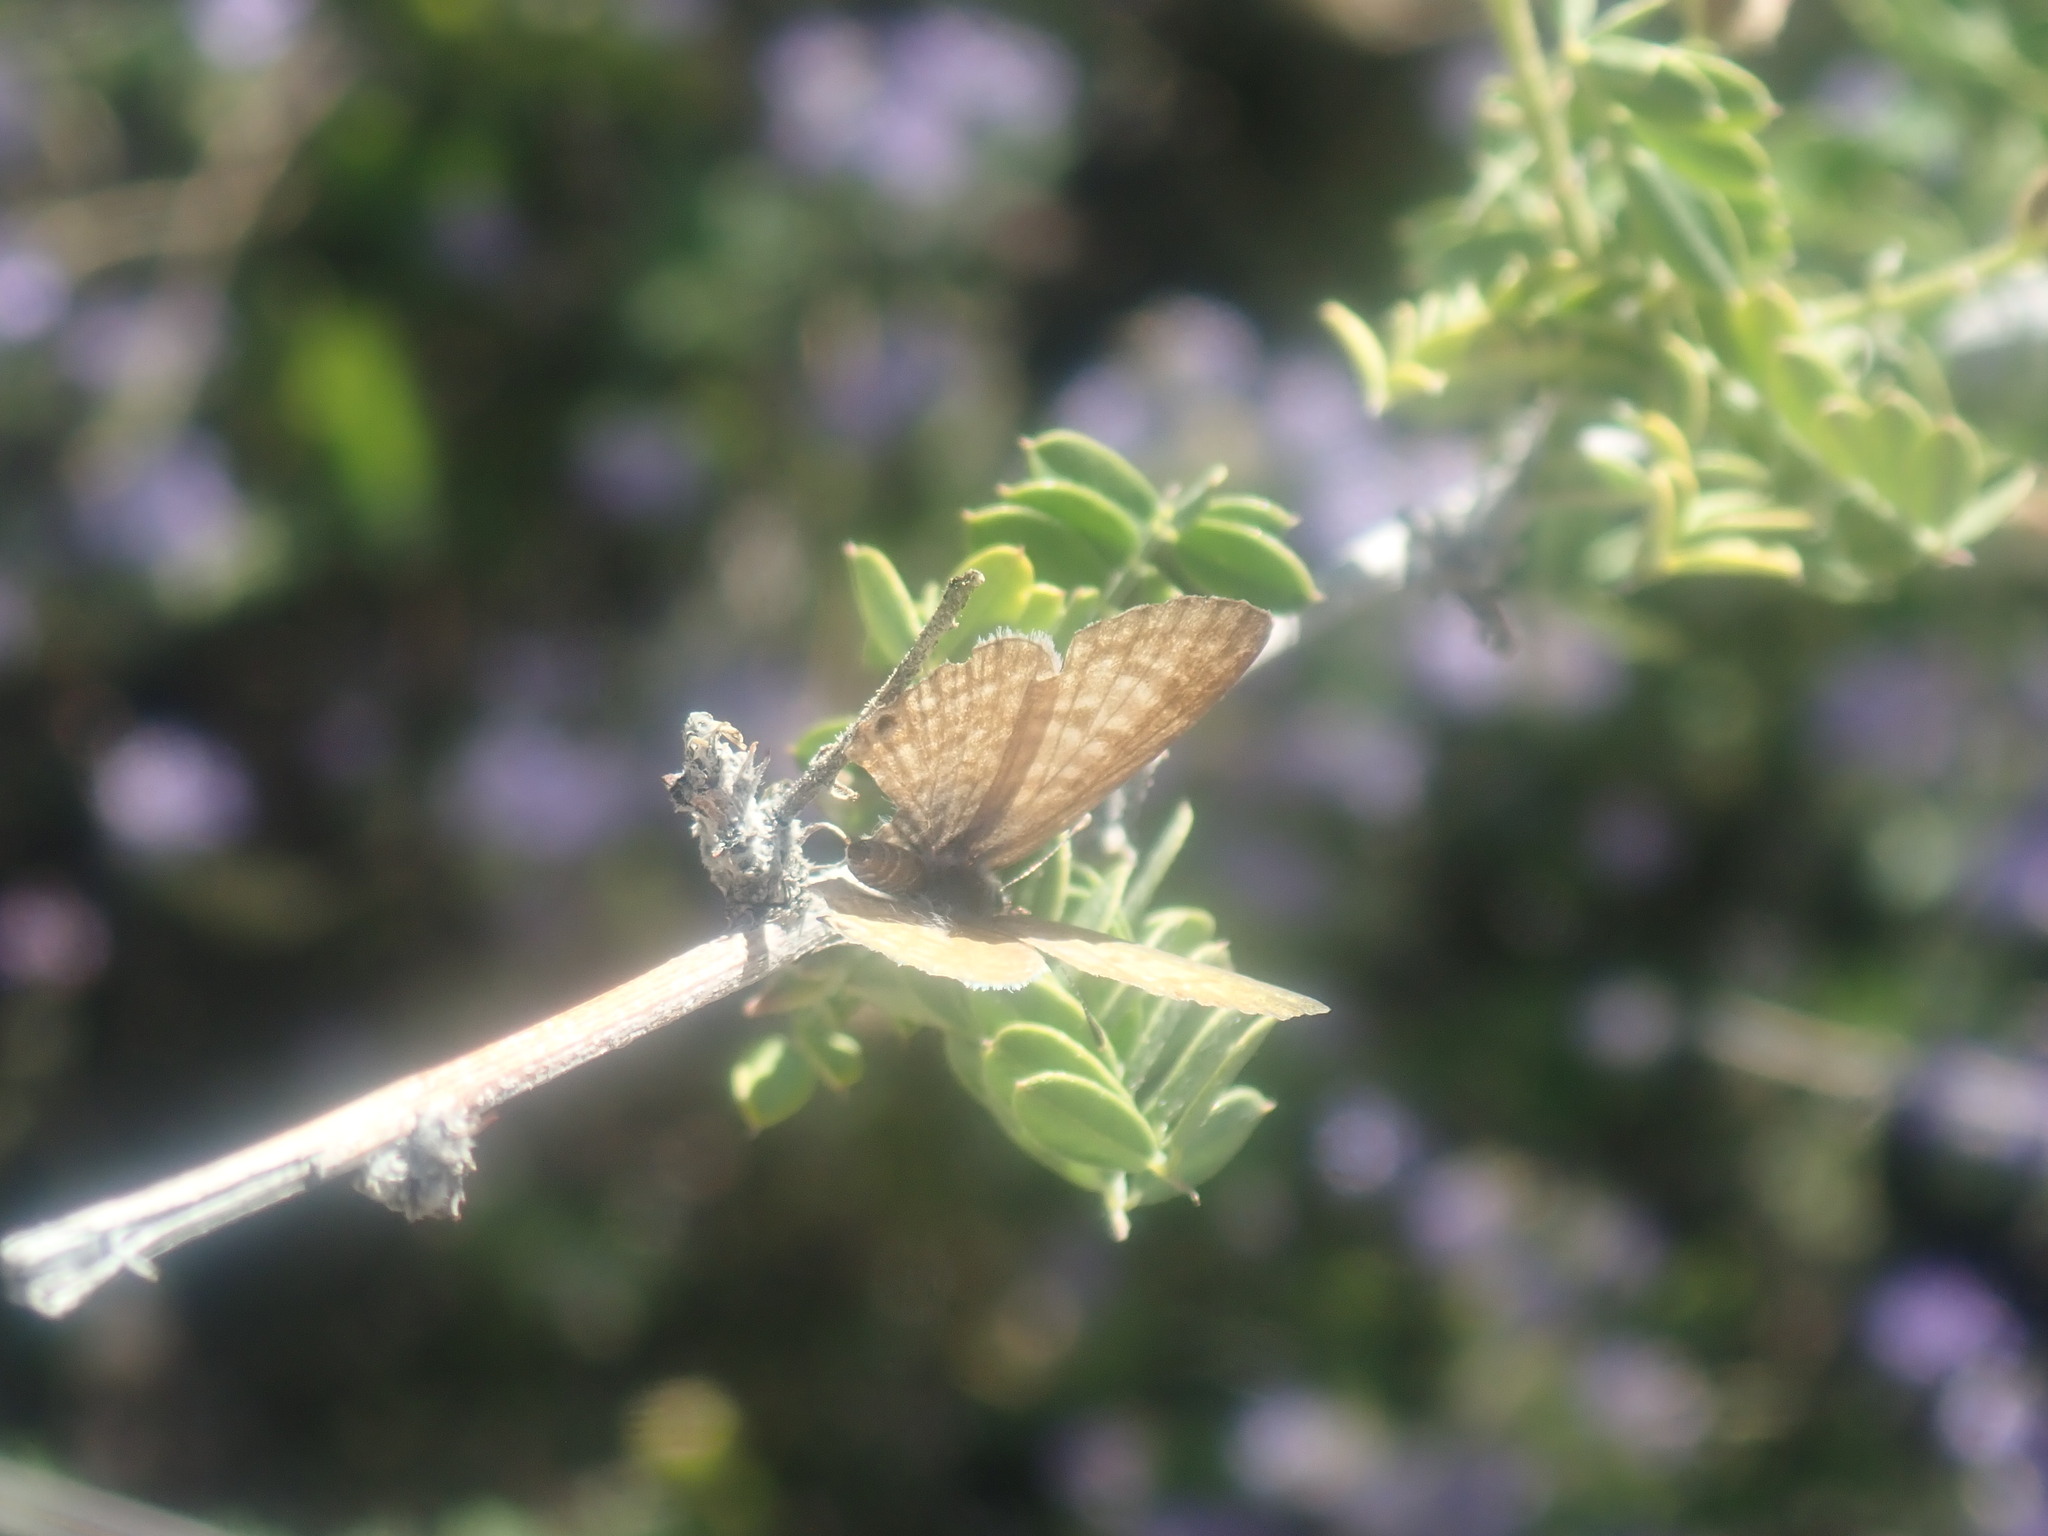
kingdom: Animalia
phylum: Arthropoda
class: Insecta
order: Lepidoptera
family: Lycaenidae
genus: Leptotes
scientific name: Leptotes marina
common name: Marine blue
